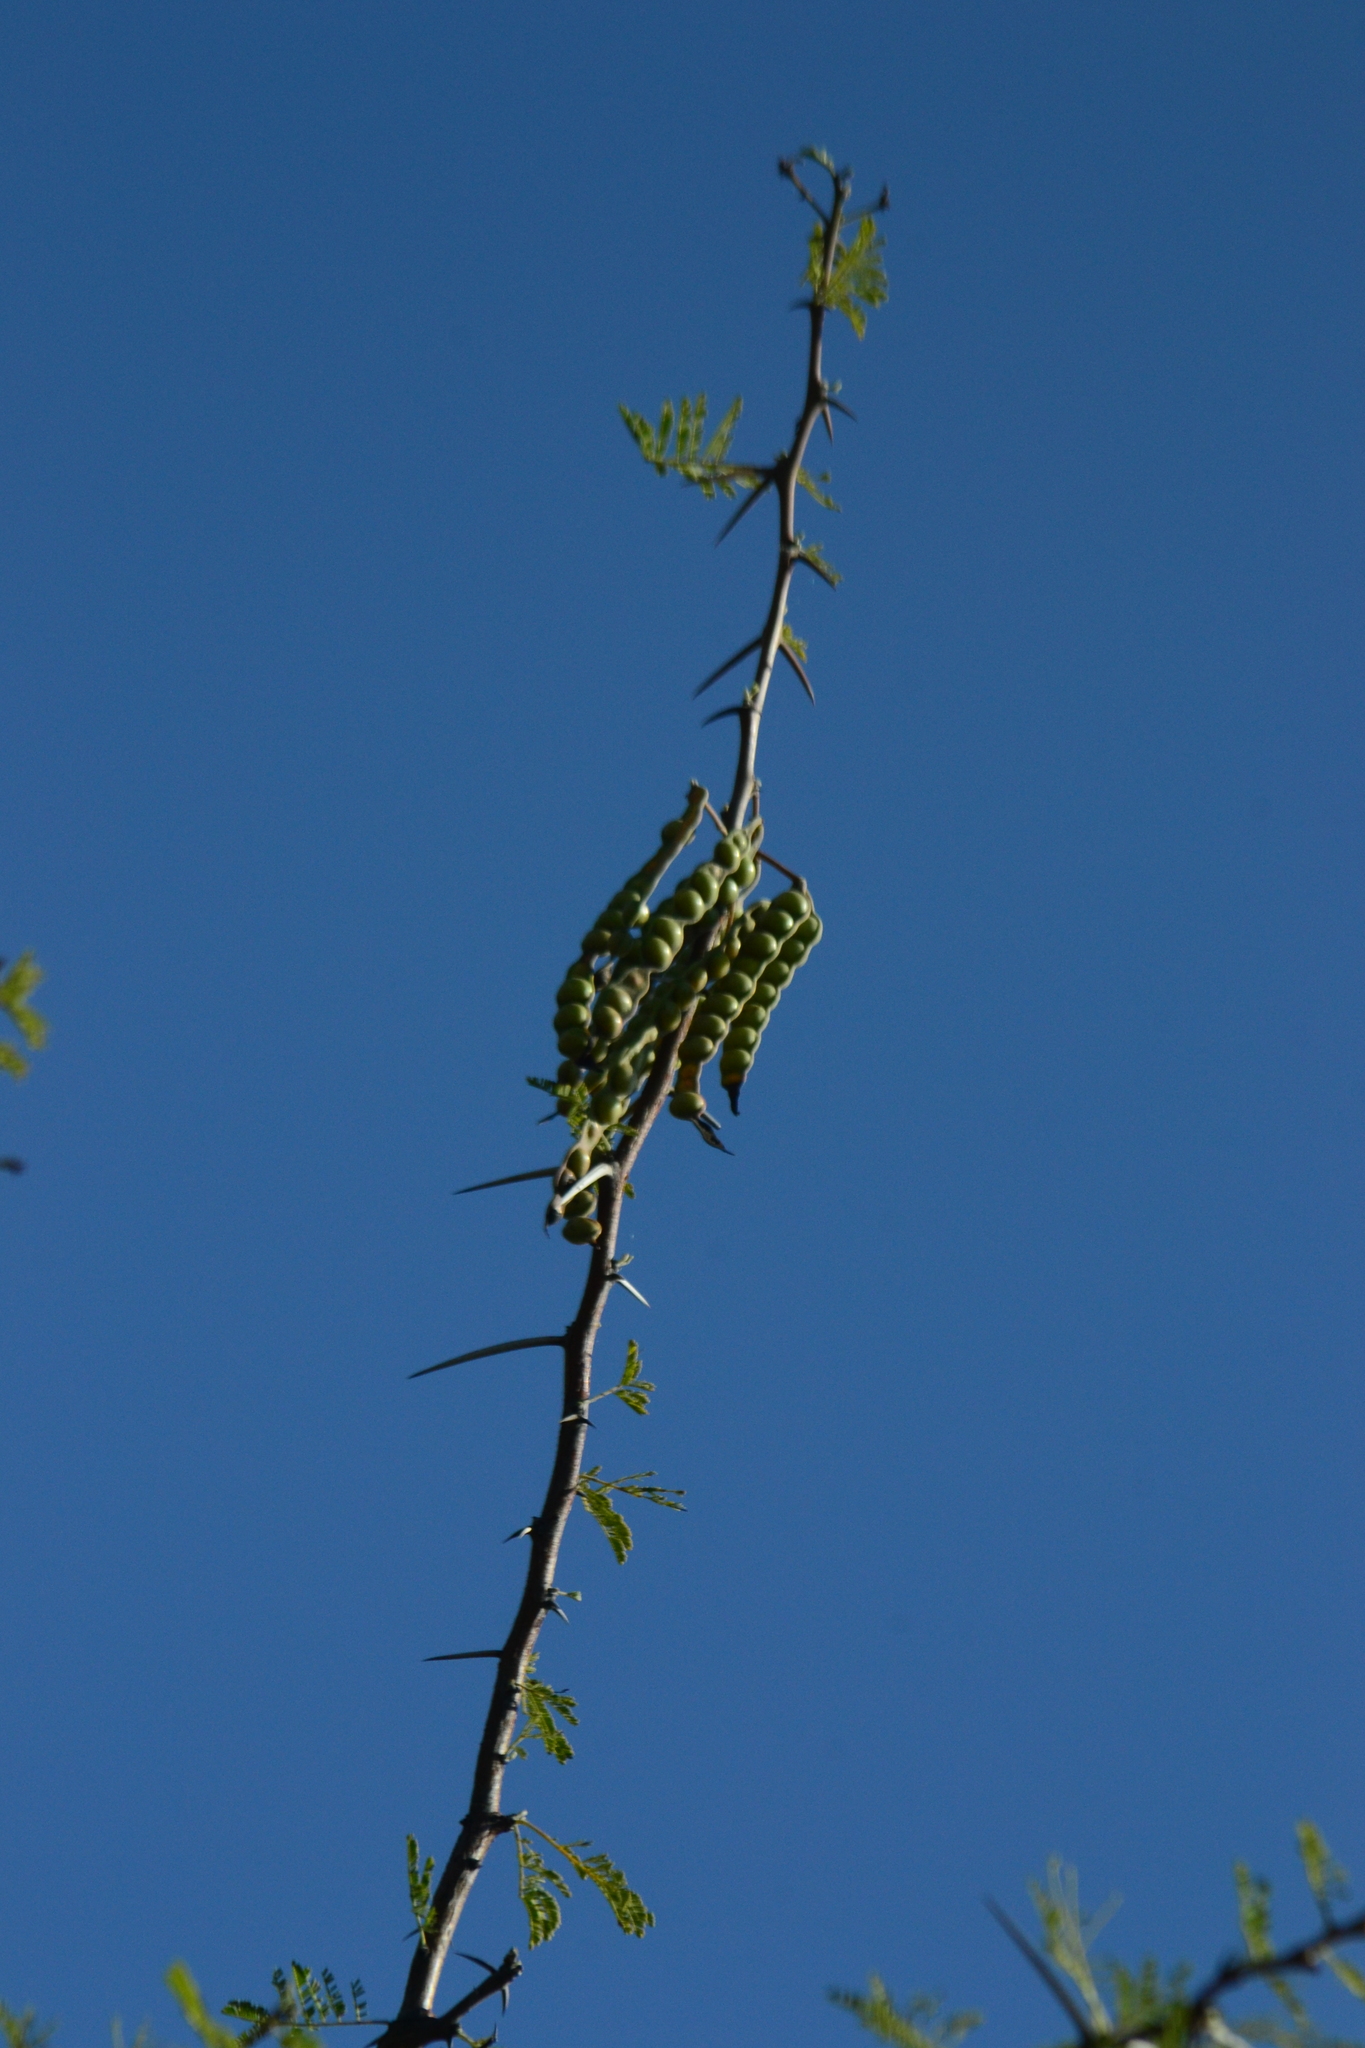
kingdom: Plantae
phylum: Tracheophyta
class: Magnoliopsida
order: Fabales
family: Fabaceae
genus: Vachellia
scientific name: Vachellia nilotica
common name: Arabic gumtree
